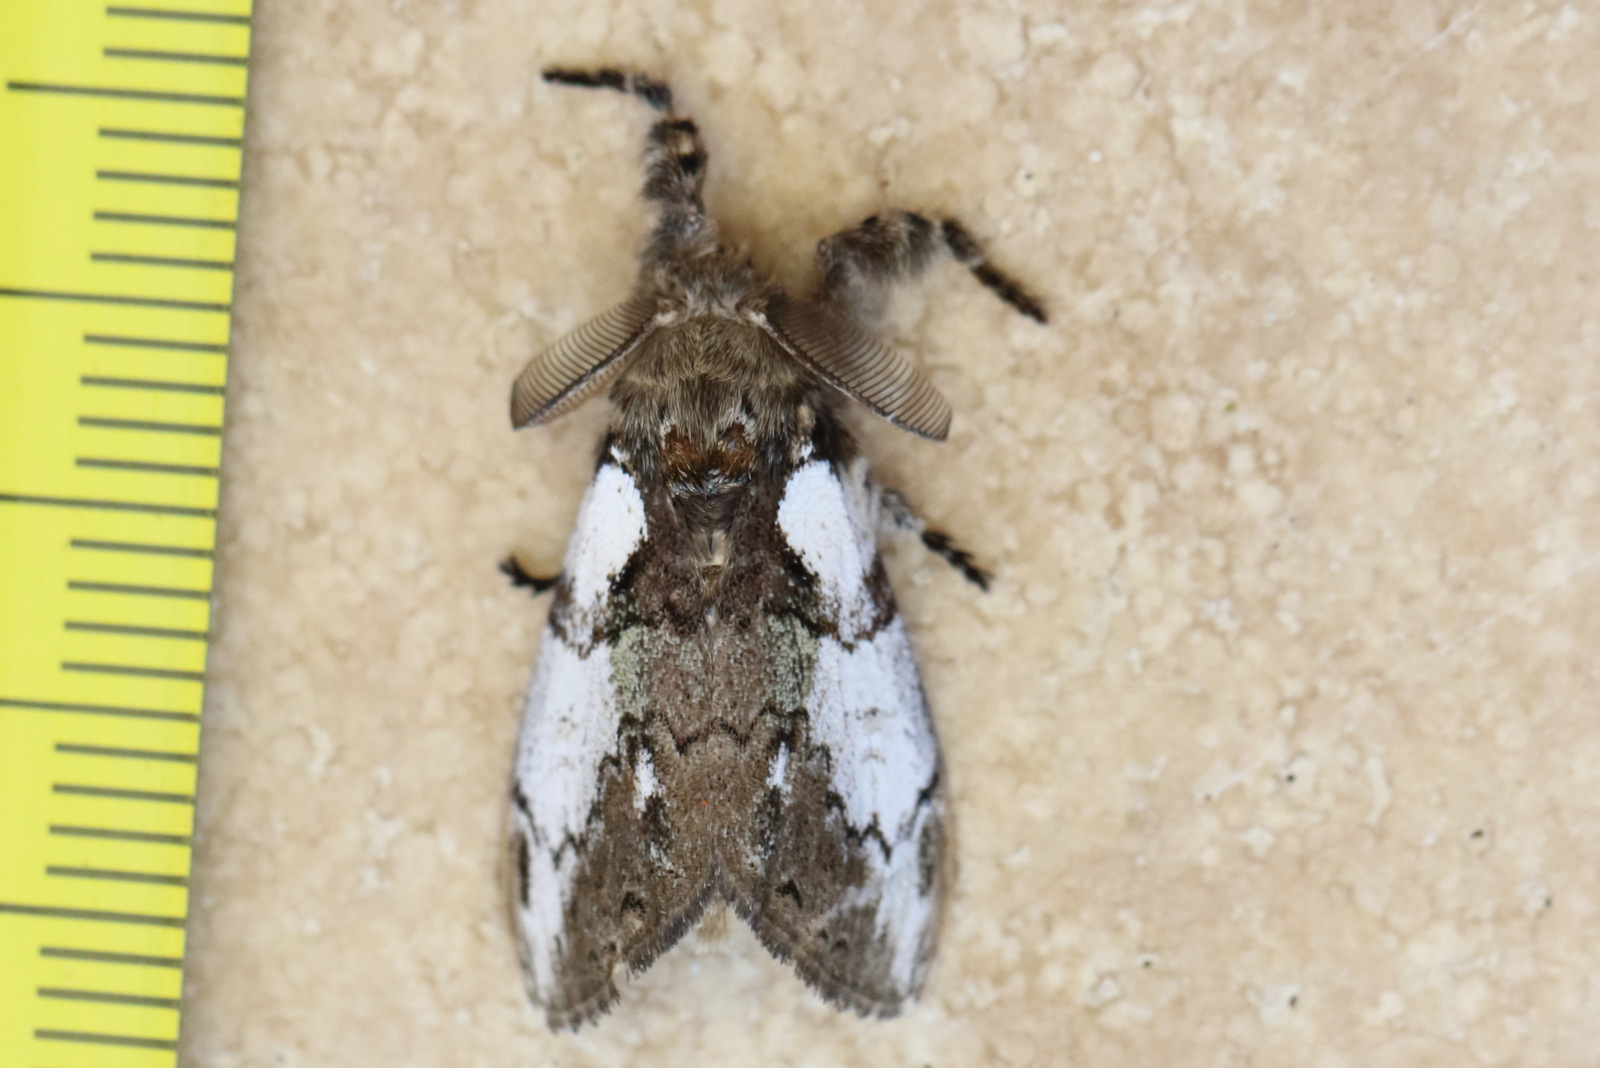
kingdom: Animalia
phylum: Arthropoda
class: Insecta
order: Lepidoptera
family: Erebidae
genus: Olene
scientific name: Olene mendosa
